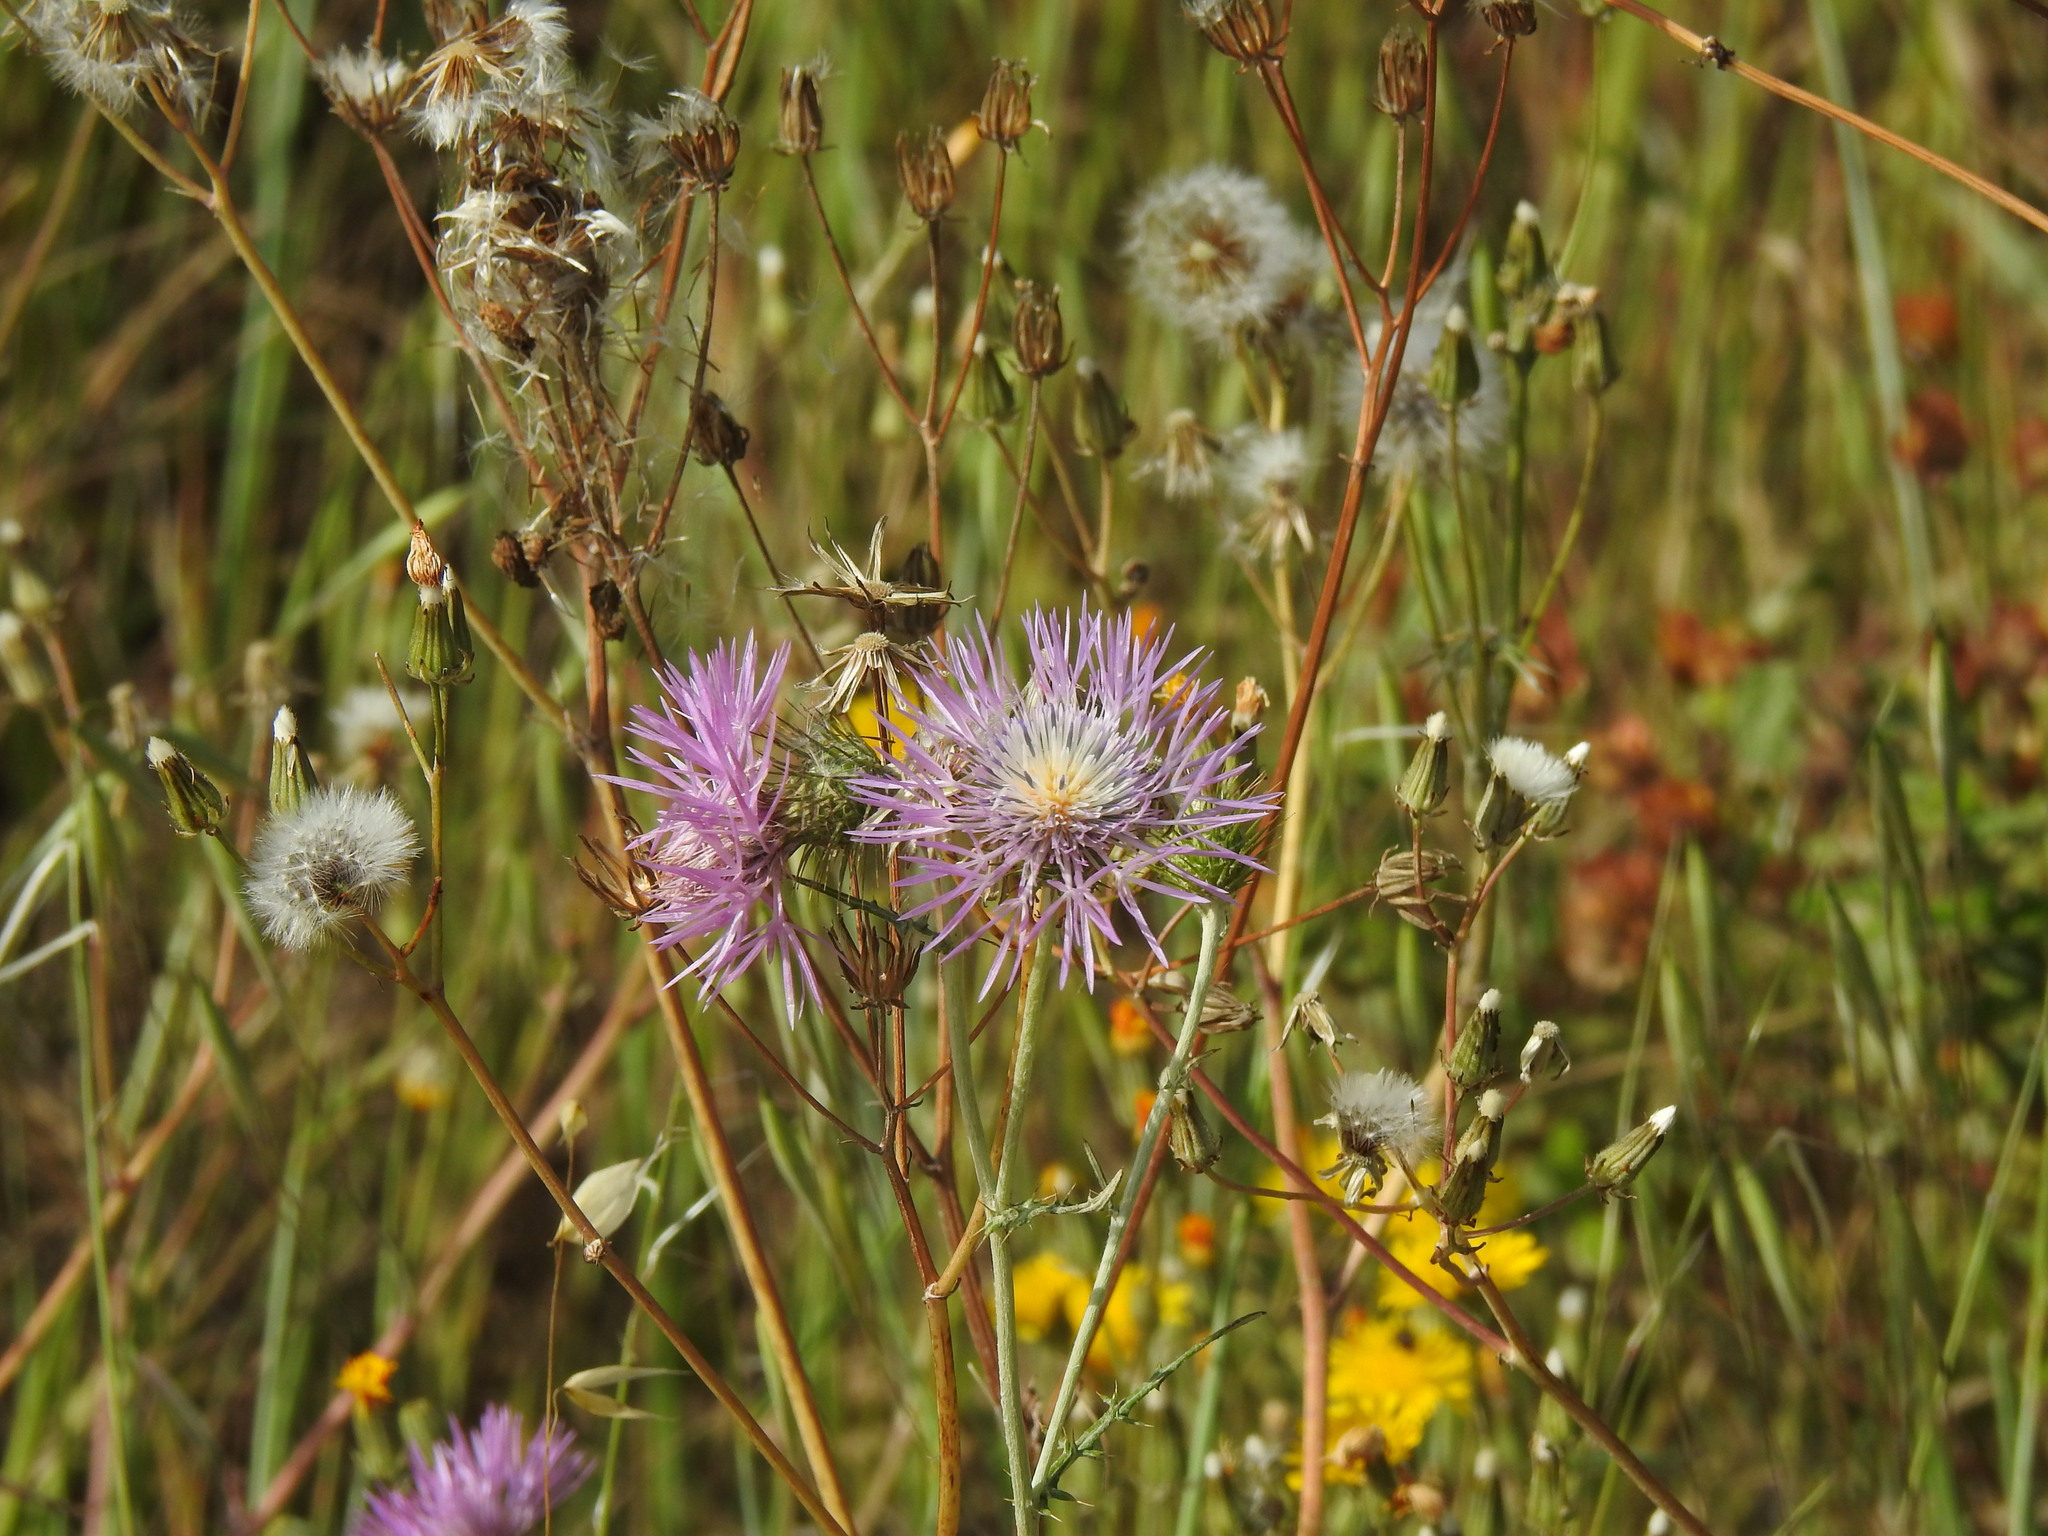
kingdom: Plantae
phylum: Tracheophyta
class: Magnoliopsida
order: Asterales
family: Asteraceae
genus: Galactites
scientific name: Galactites tomentosa
